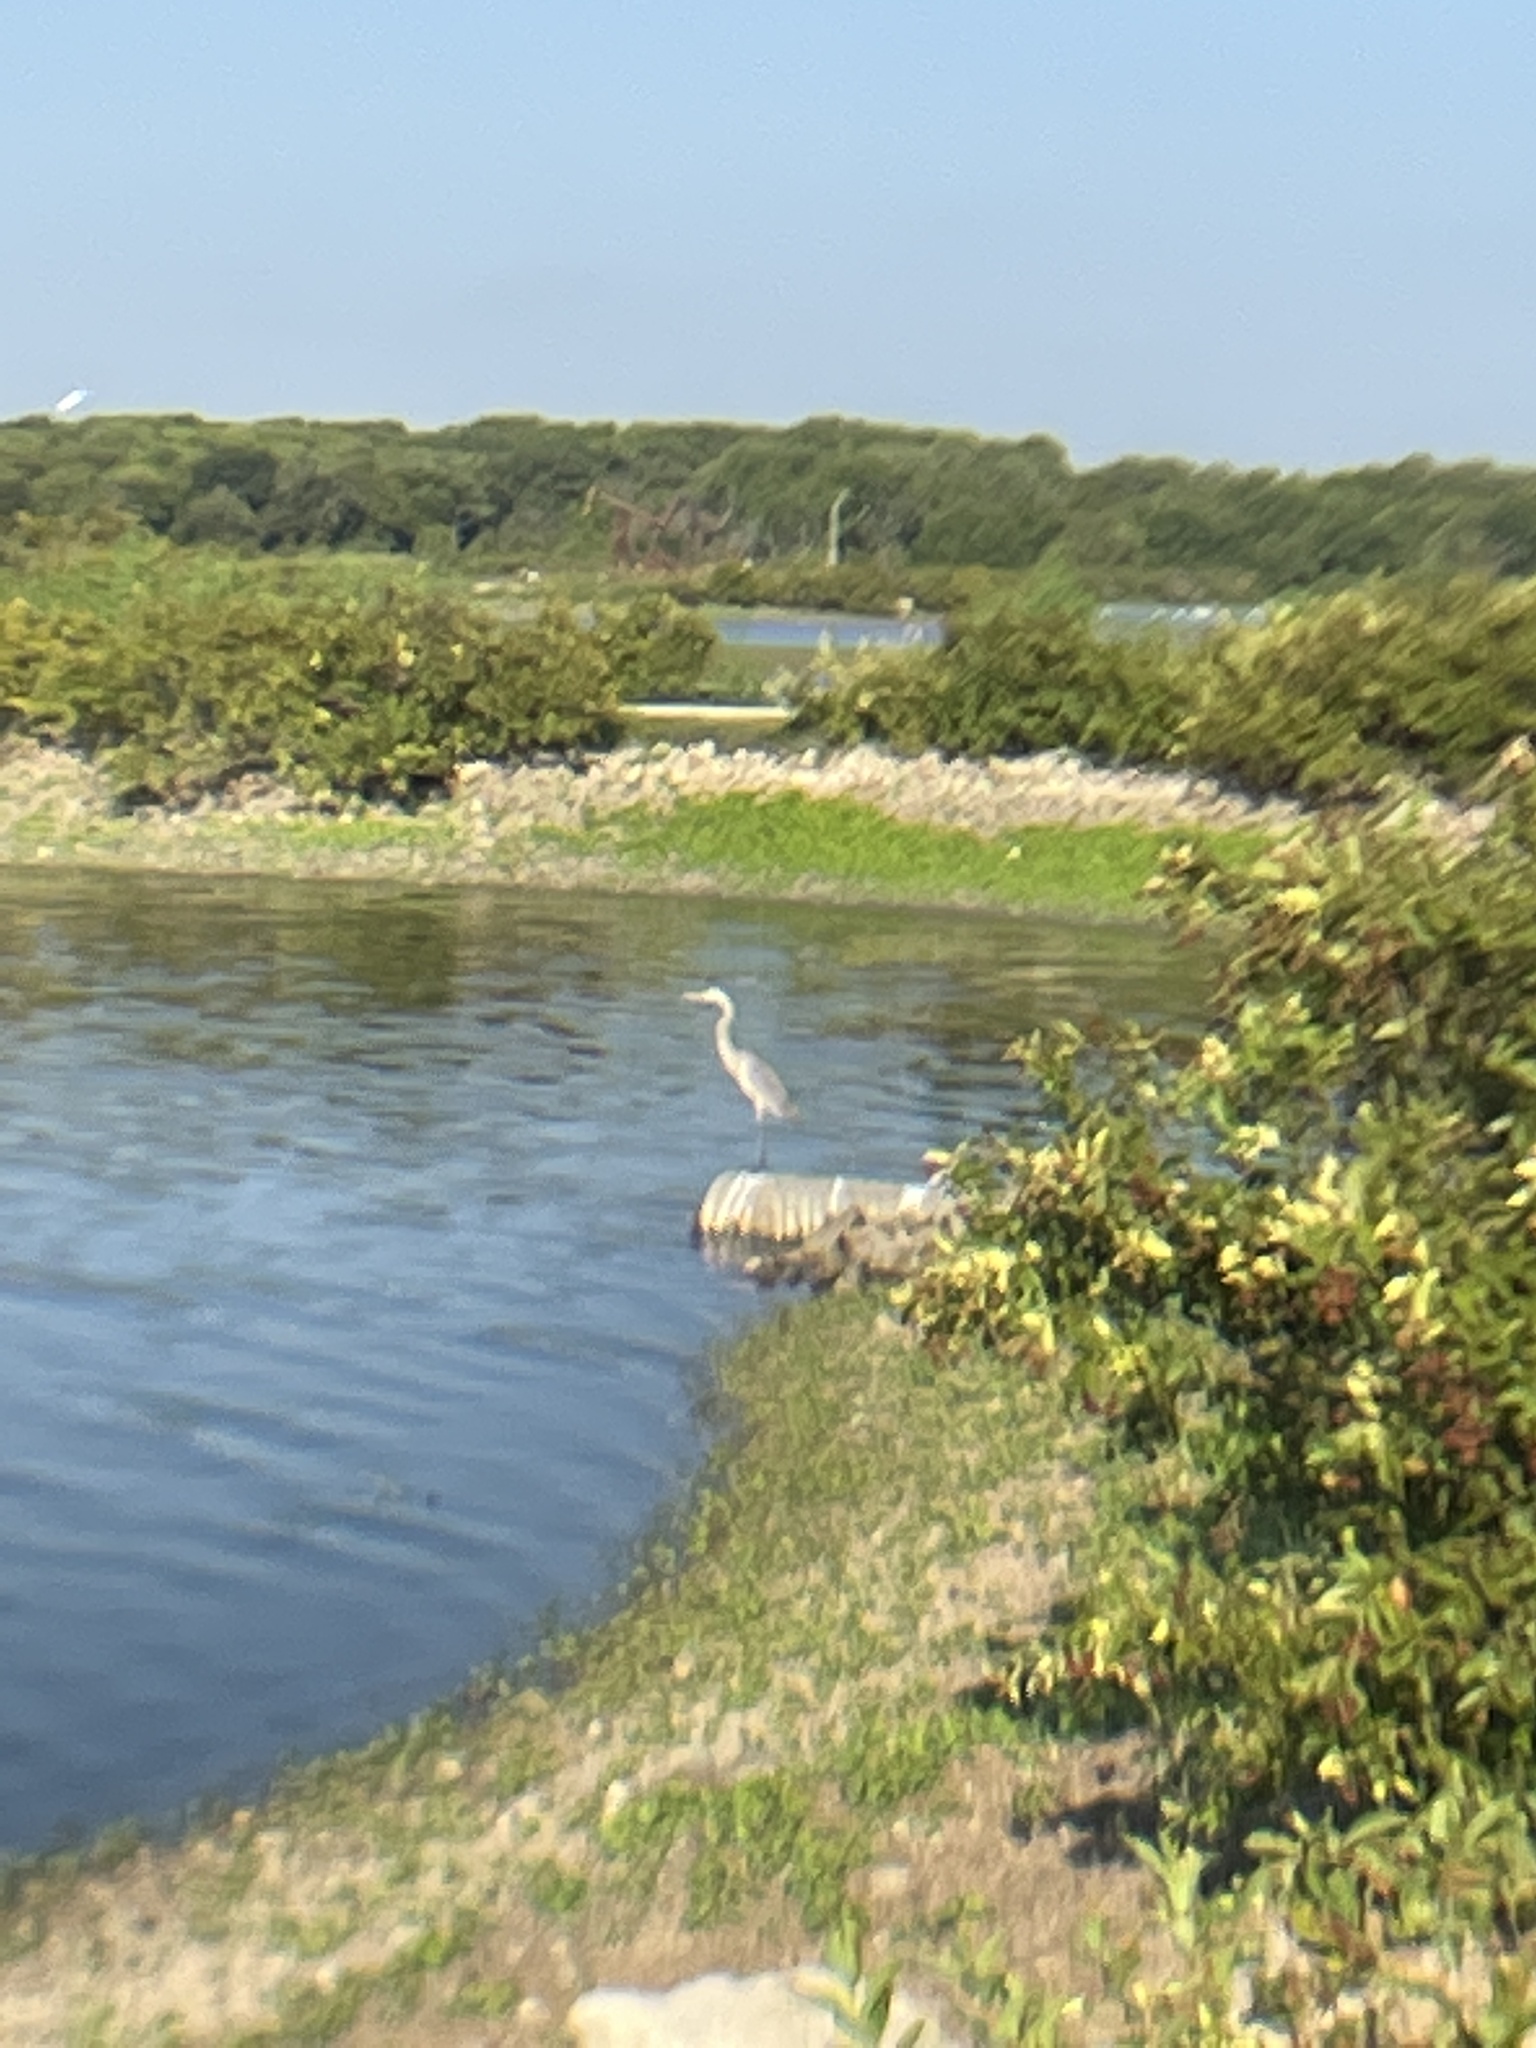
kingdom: Animalia
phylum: Chordata
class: Aves
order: Pelecaniformes
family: Ardeidae
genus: Ardea
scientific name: Ardea herodias
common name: Great blue heron
